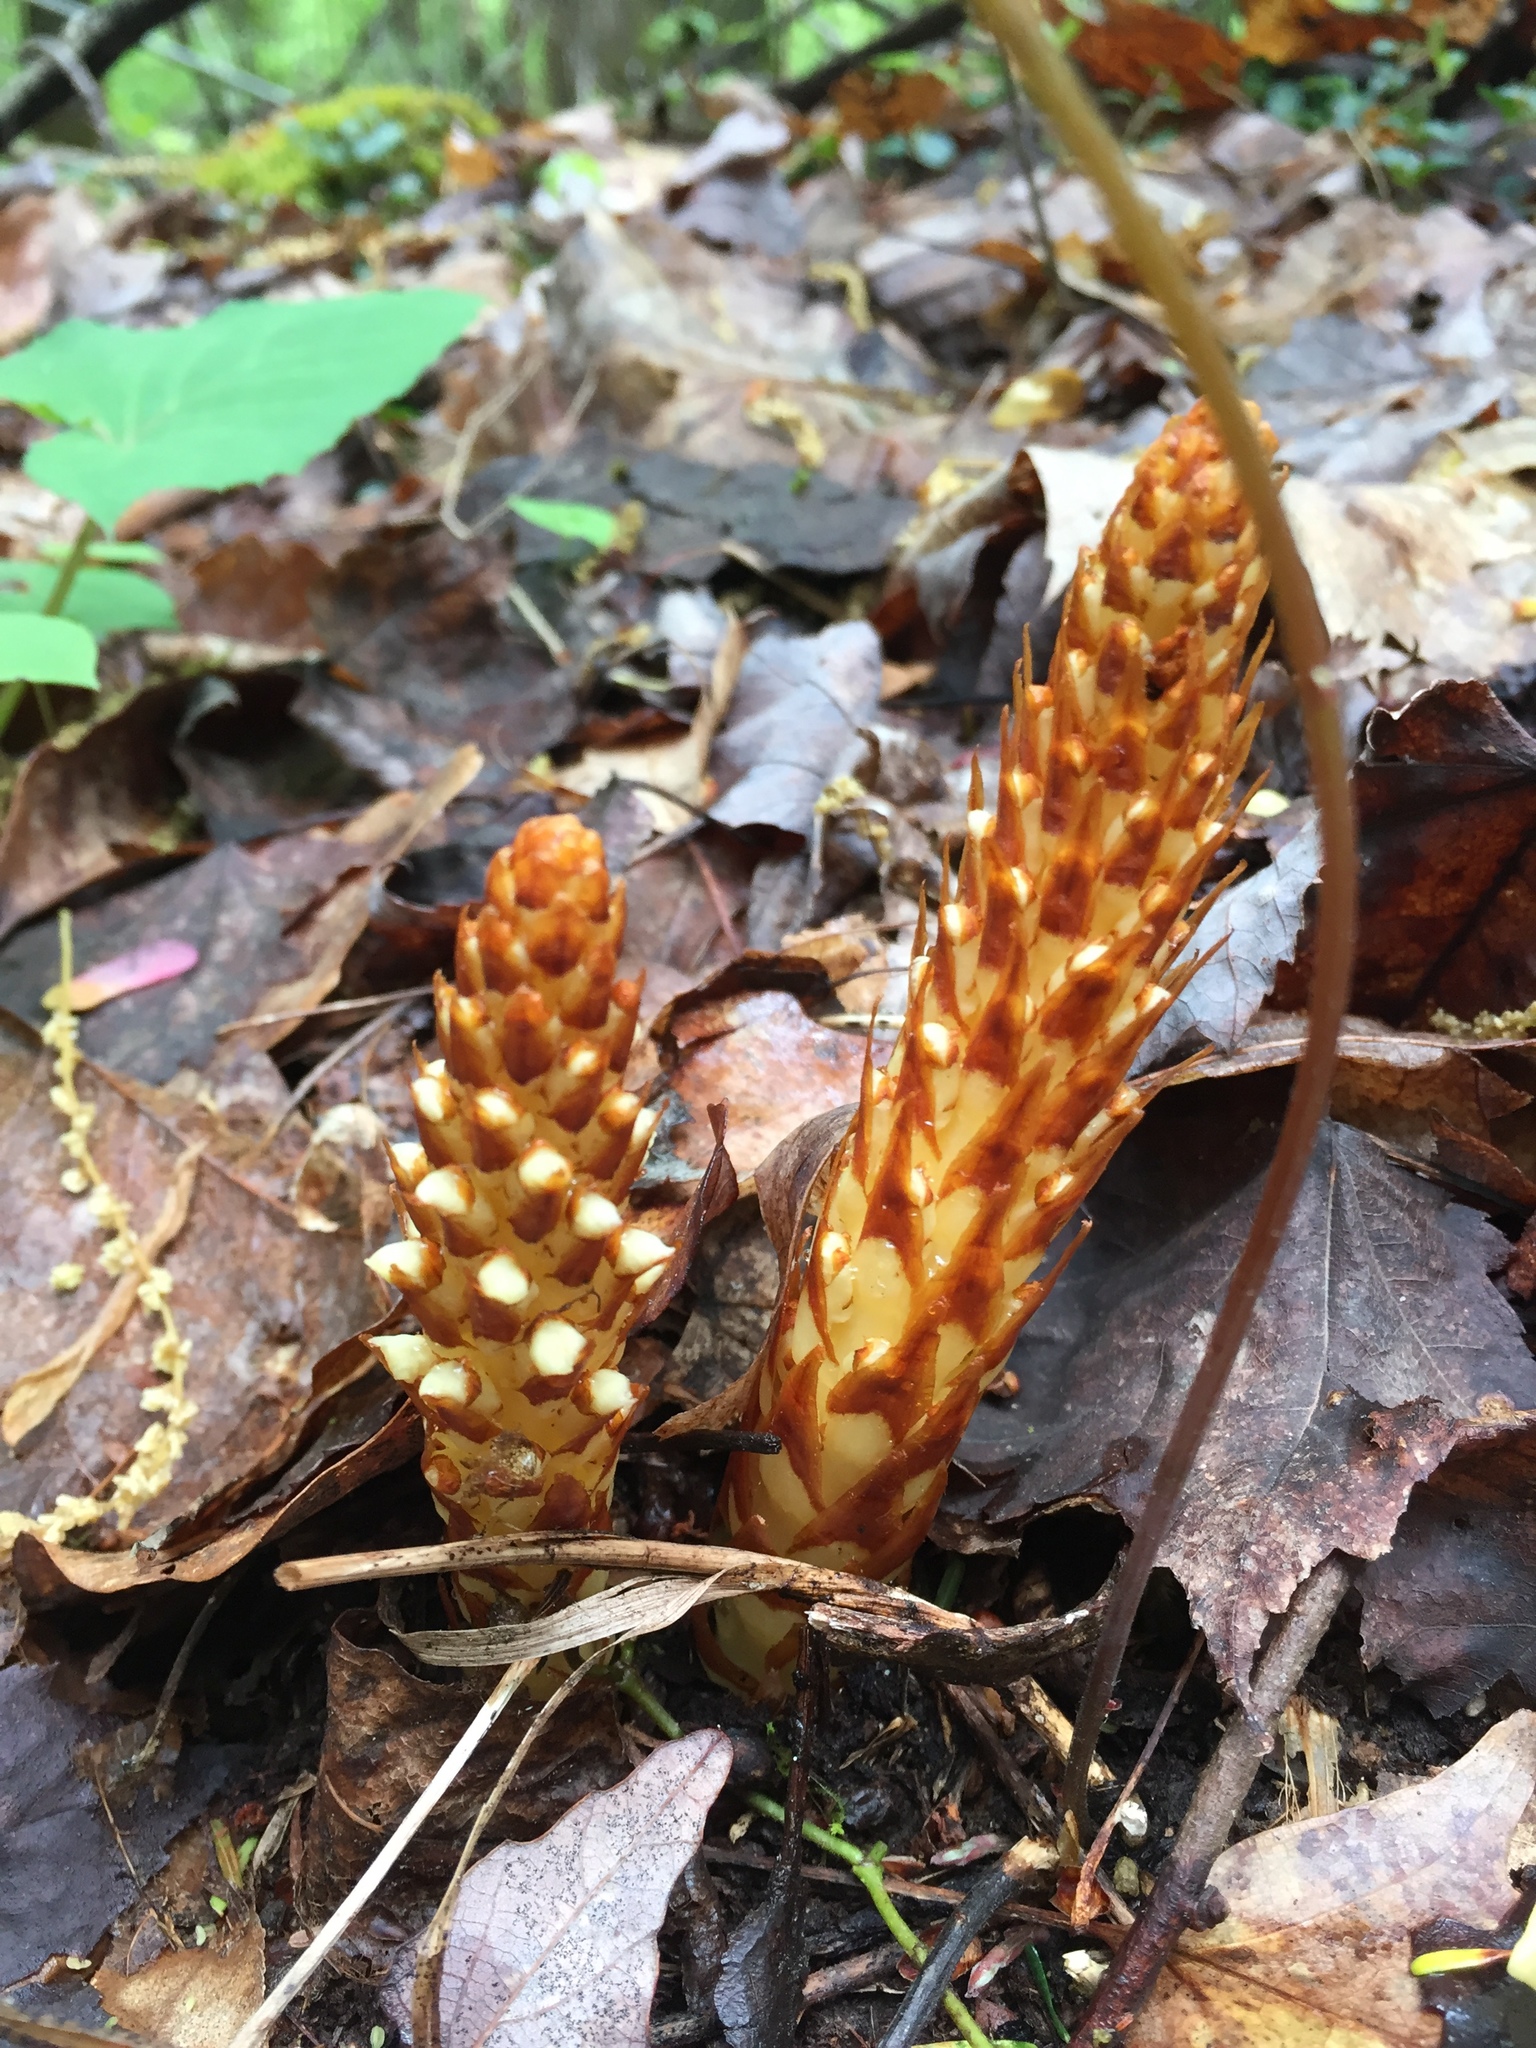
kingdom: Plantae
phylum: Tracheophyta
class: Magnoliopsida
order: Lamiales
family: Orobanchaceae
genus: Conopholis
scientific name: Conopholis americana
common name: American cancer-root
